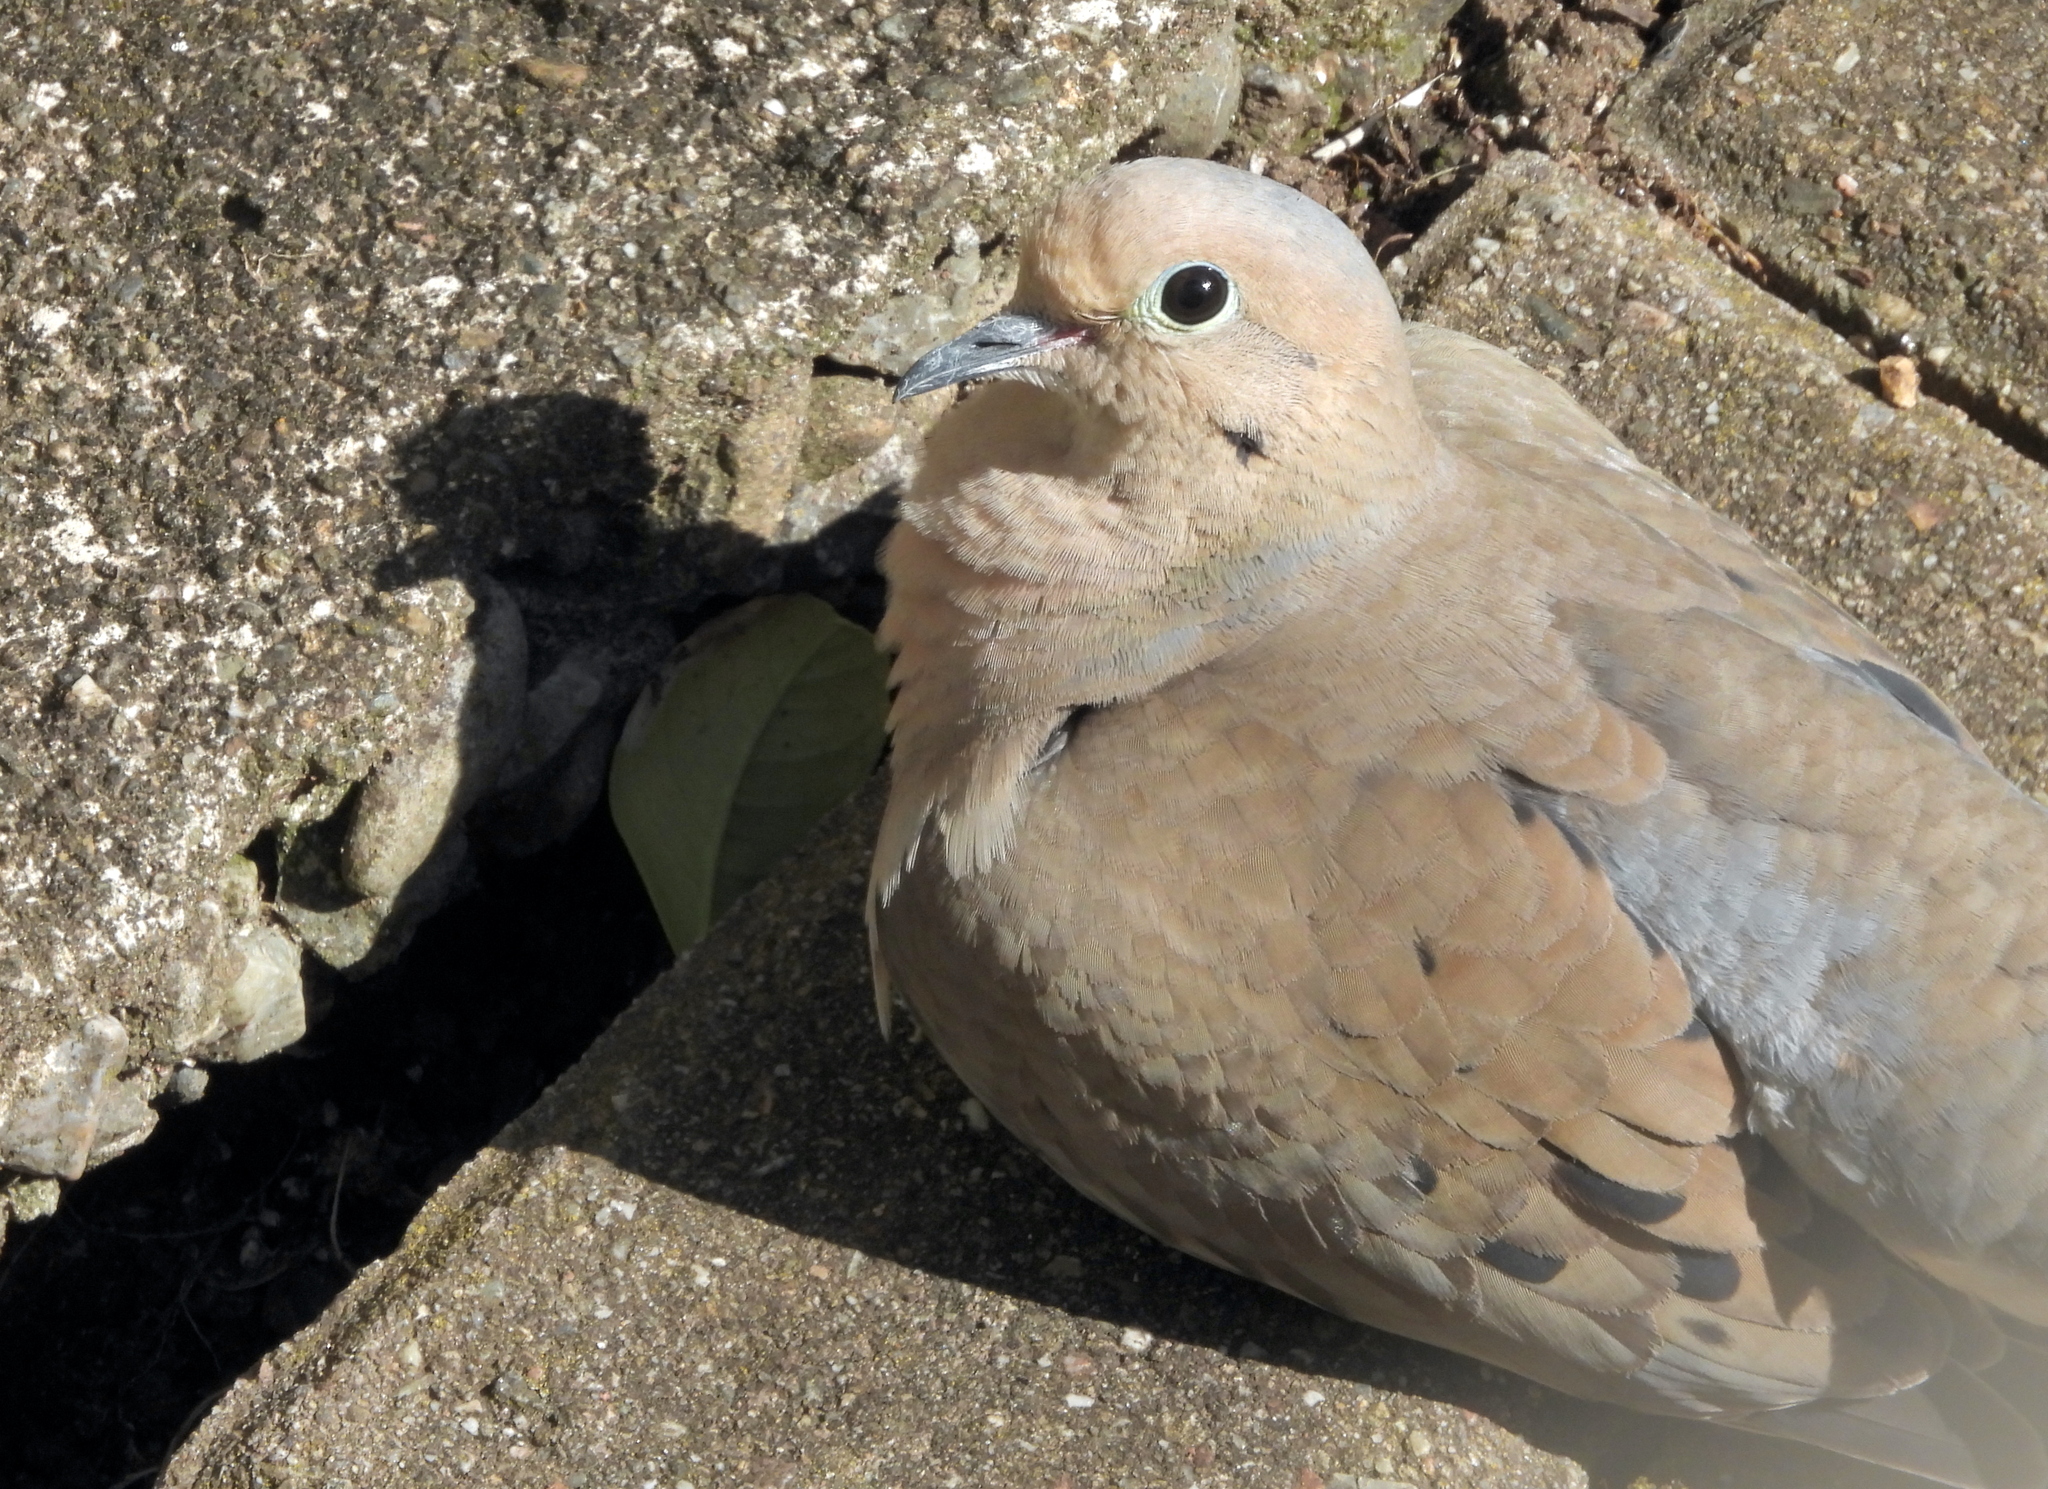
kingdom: Animalia
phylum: Chordata
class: Aves
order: Columbiformes
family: Columbidae
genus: Zenaida
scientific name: Zenaida macroura
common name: Mourning dove
